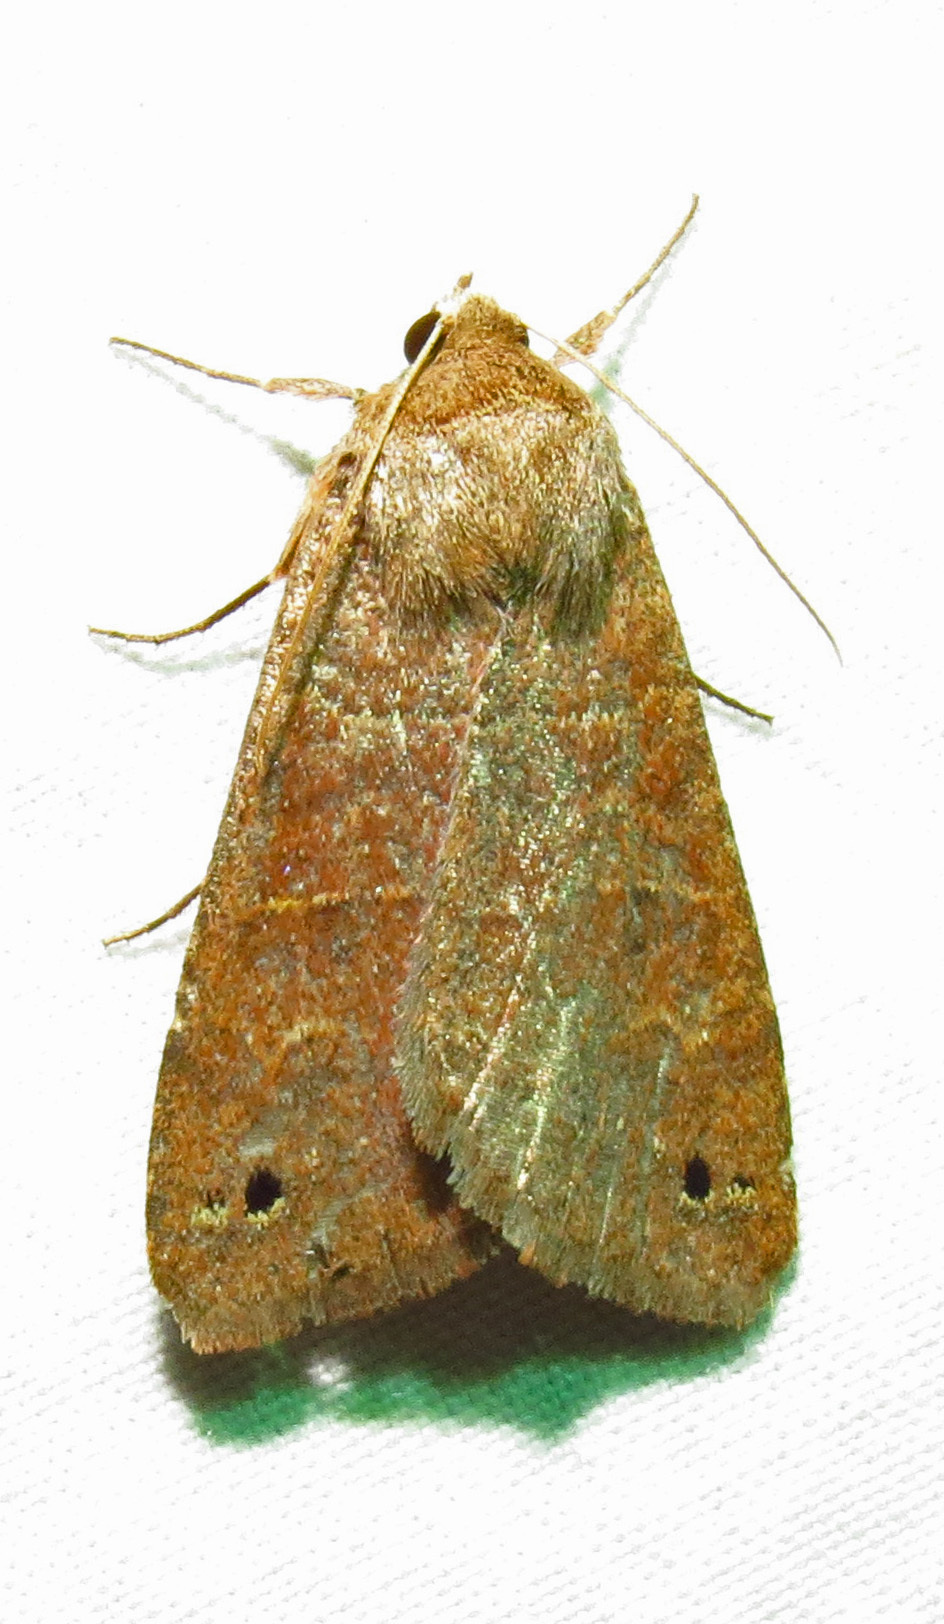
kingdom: Animalia
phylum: Arthropoda
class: Insecta
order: Lepidoptera
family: Erebidae
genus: Cissusa
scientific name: Cissusa spadix
